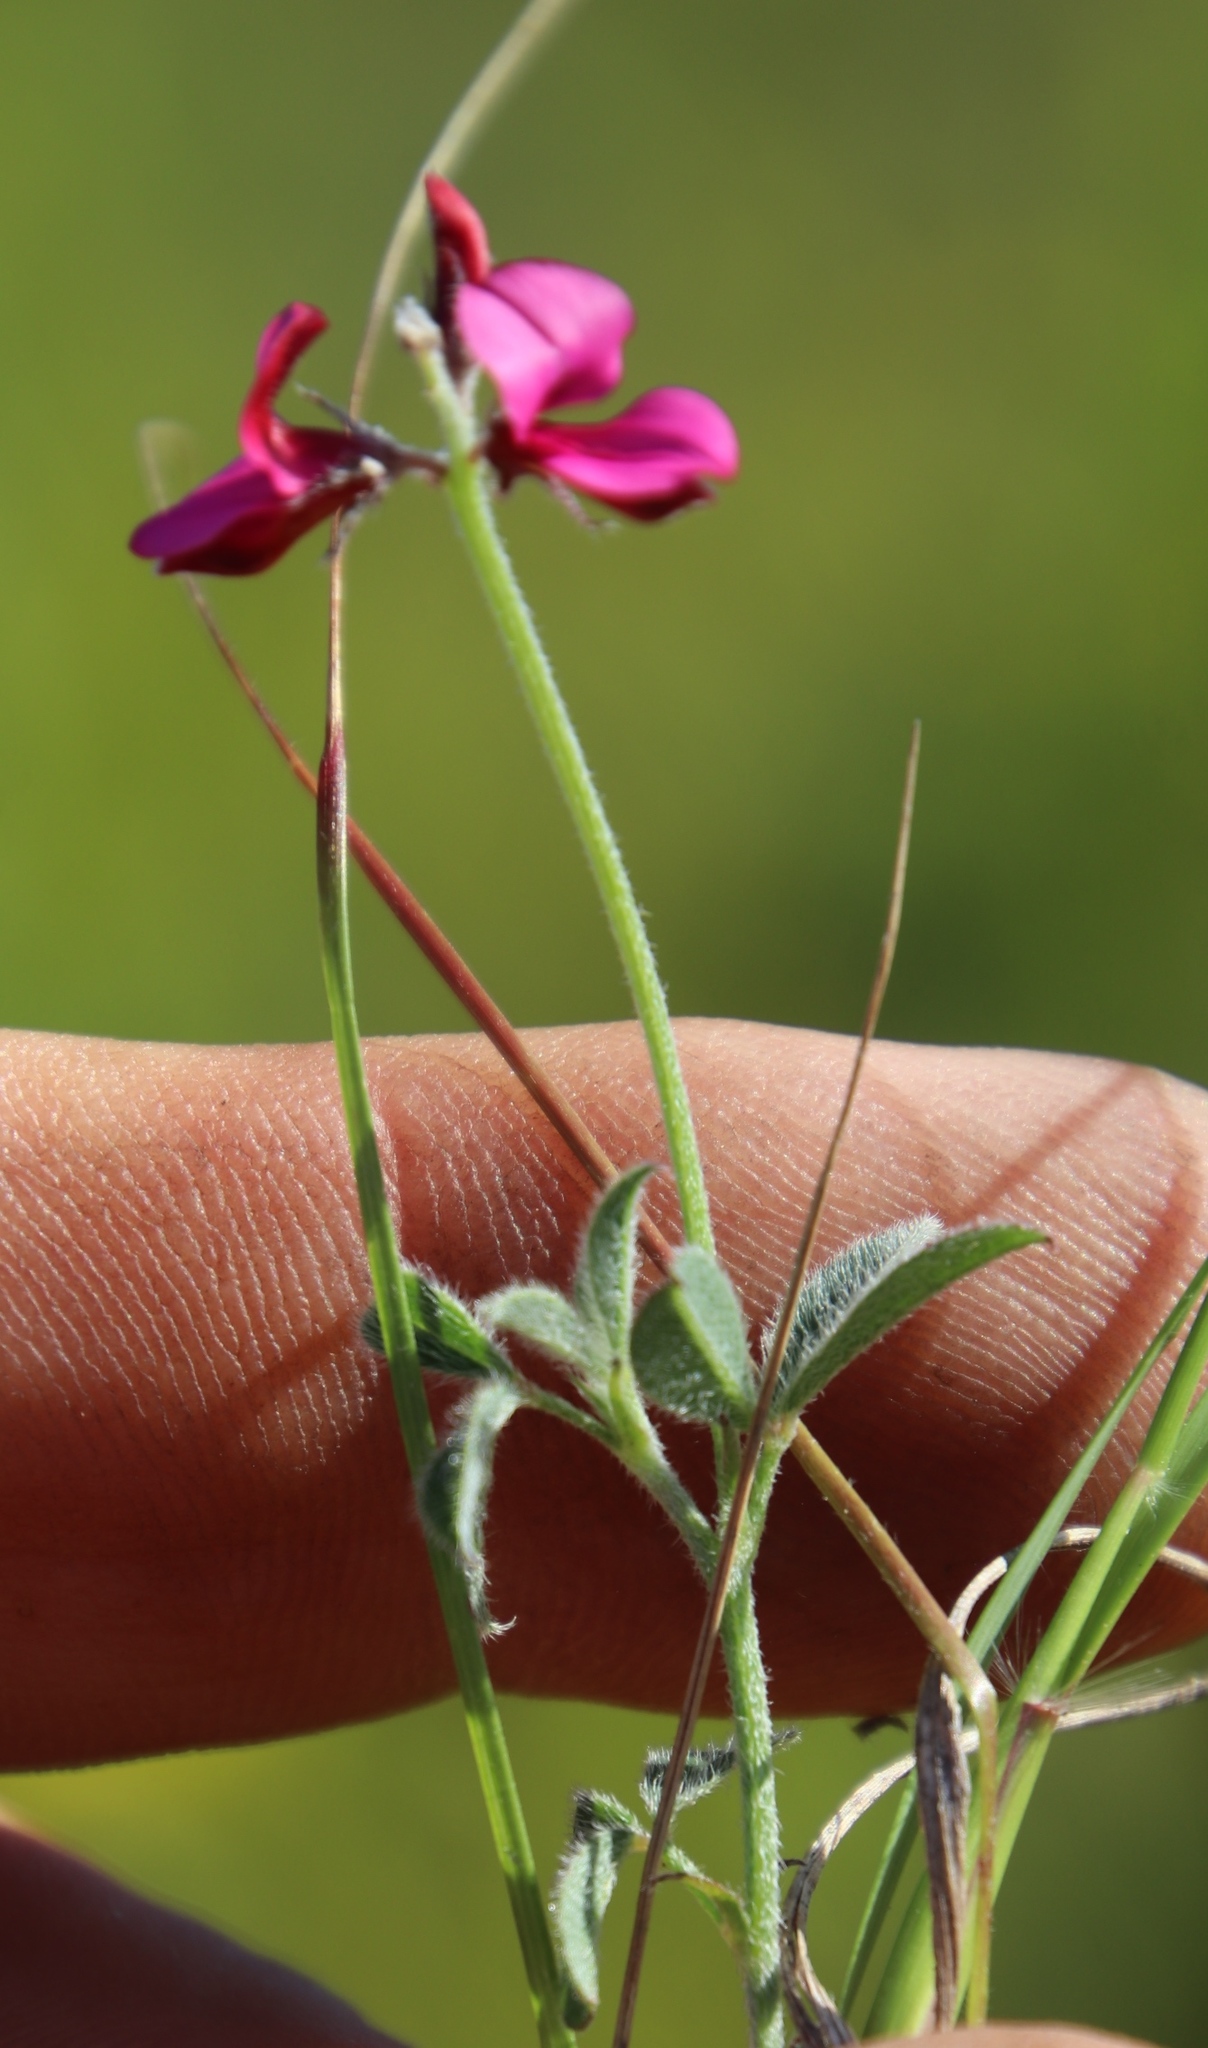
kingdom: Plantae
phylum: Tracheophyta
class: Magnoliopsida
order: Fabales
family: Fabaceae
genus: Indigofera
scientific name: Indigofera incana
